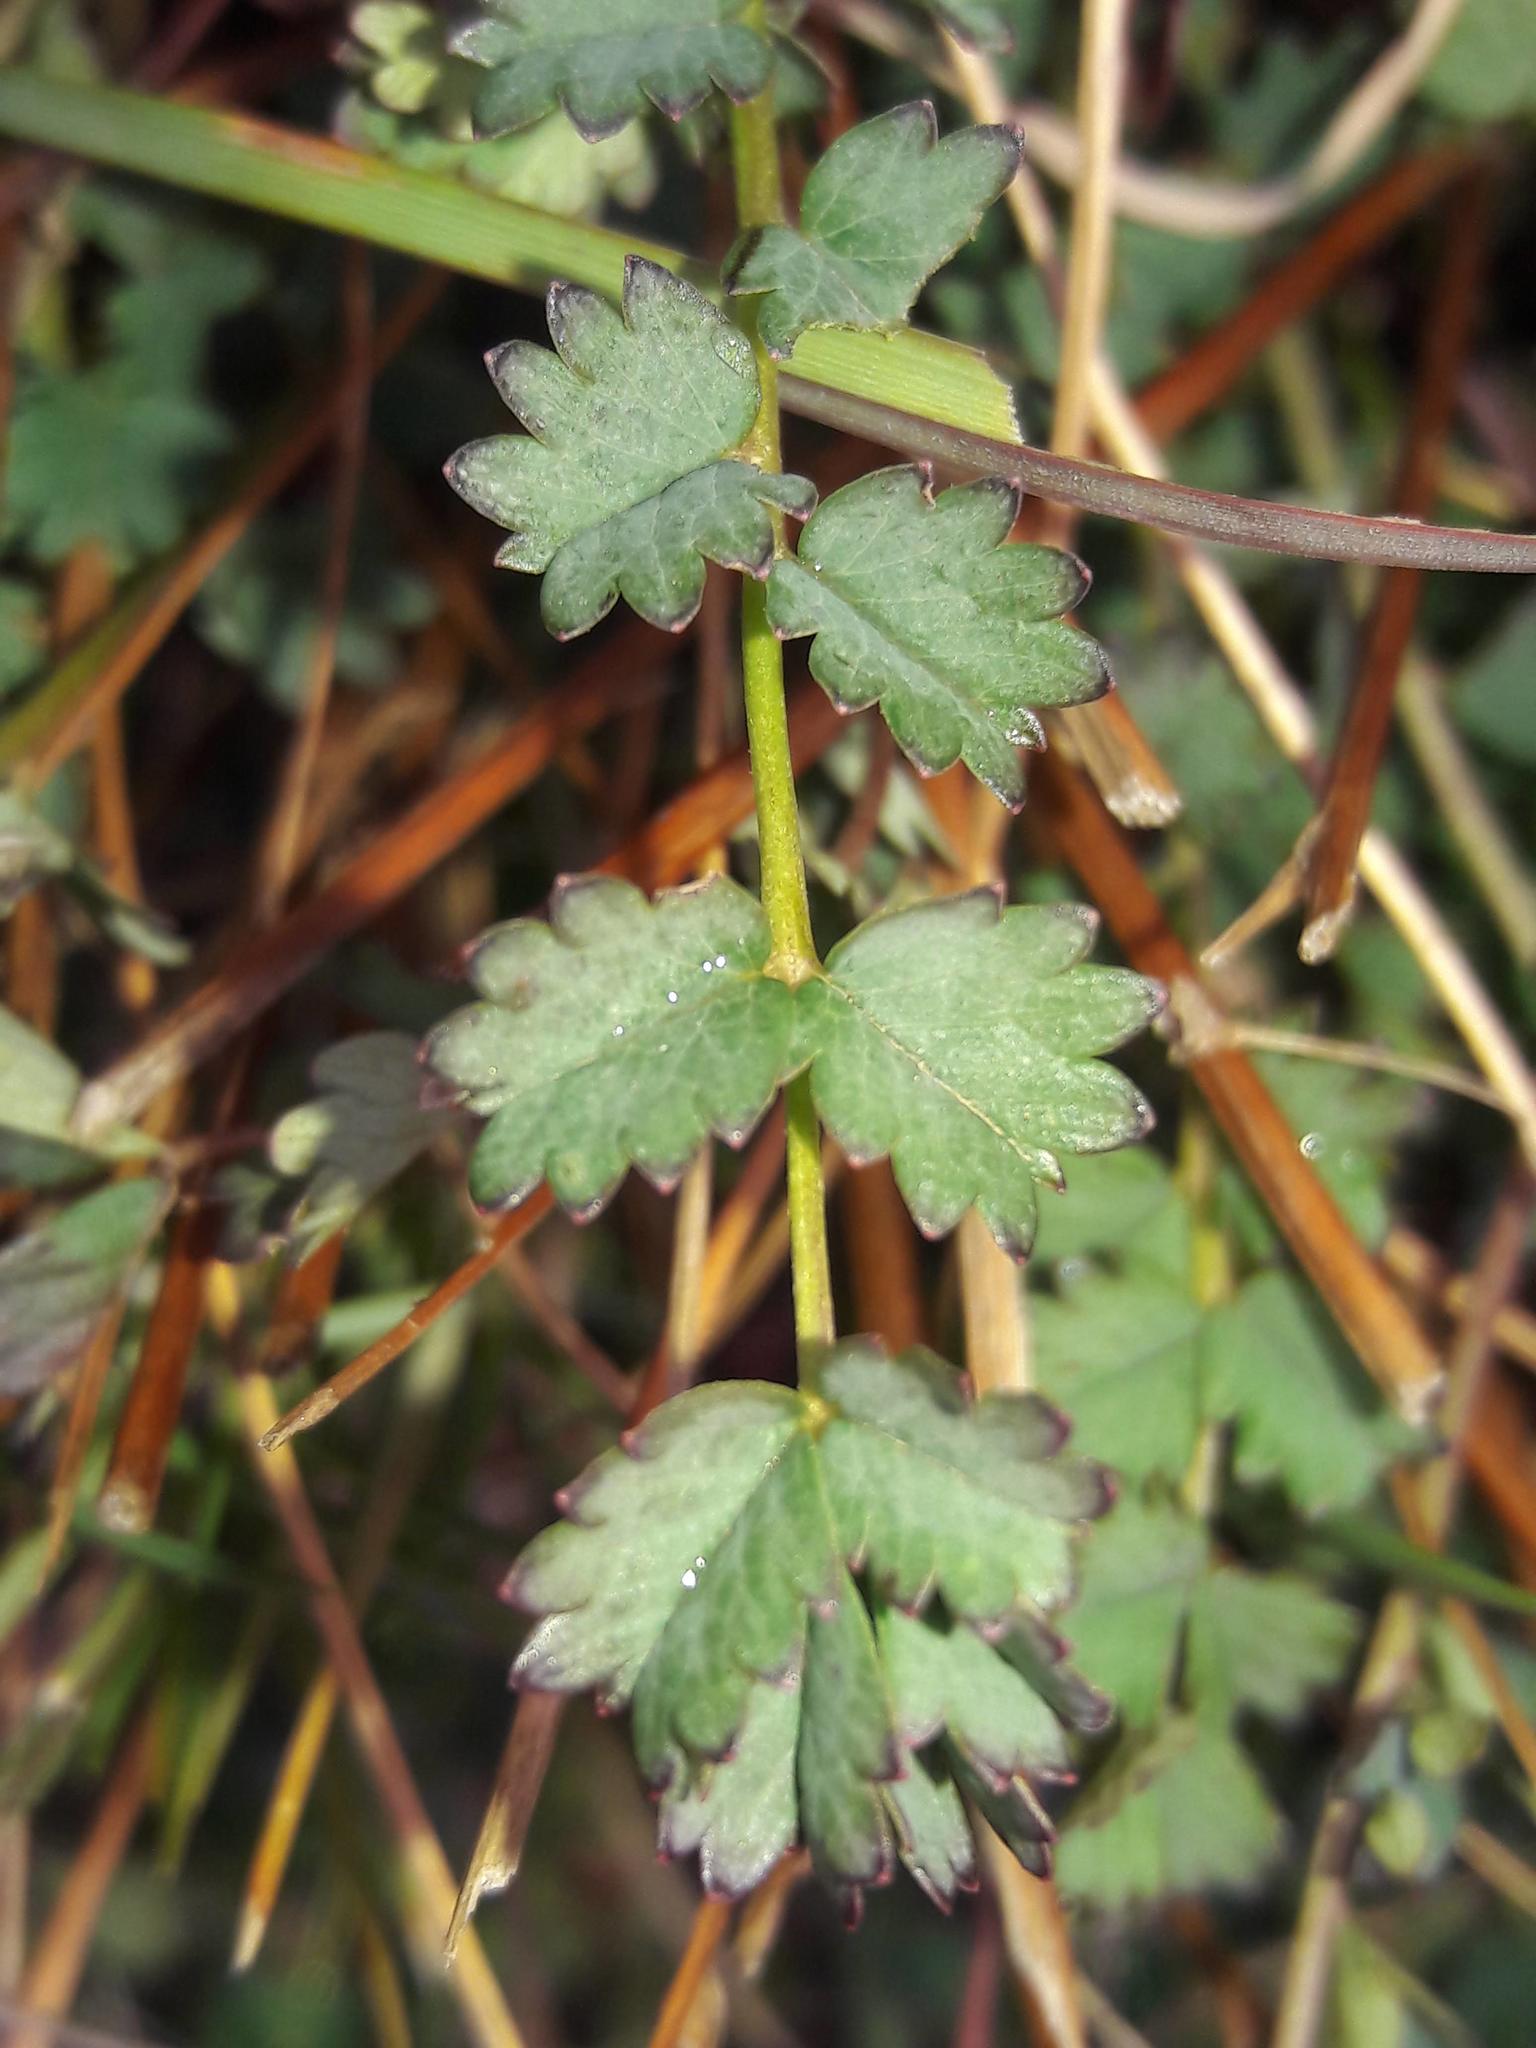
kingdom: Plantae
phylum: Tracheophyta
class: Magnoliopsida
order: Rosales
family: Rosaceae
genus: Poterium
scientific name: Poterium sanguisorba
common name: Salad burnet
